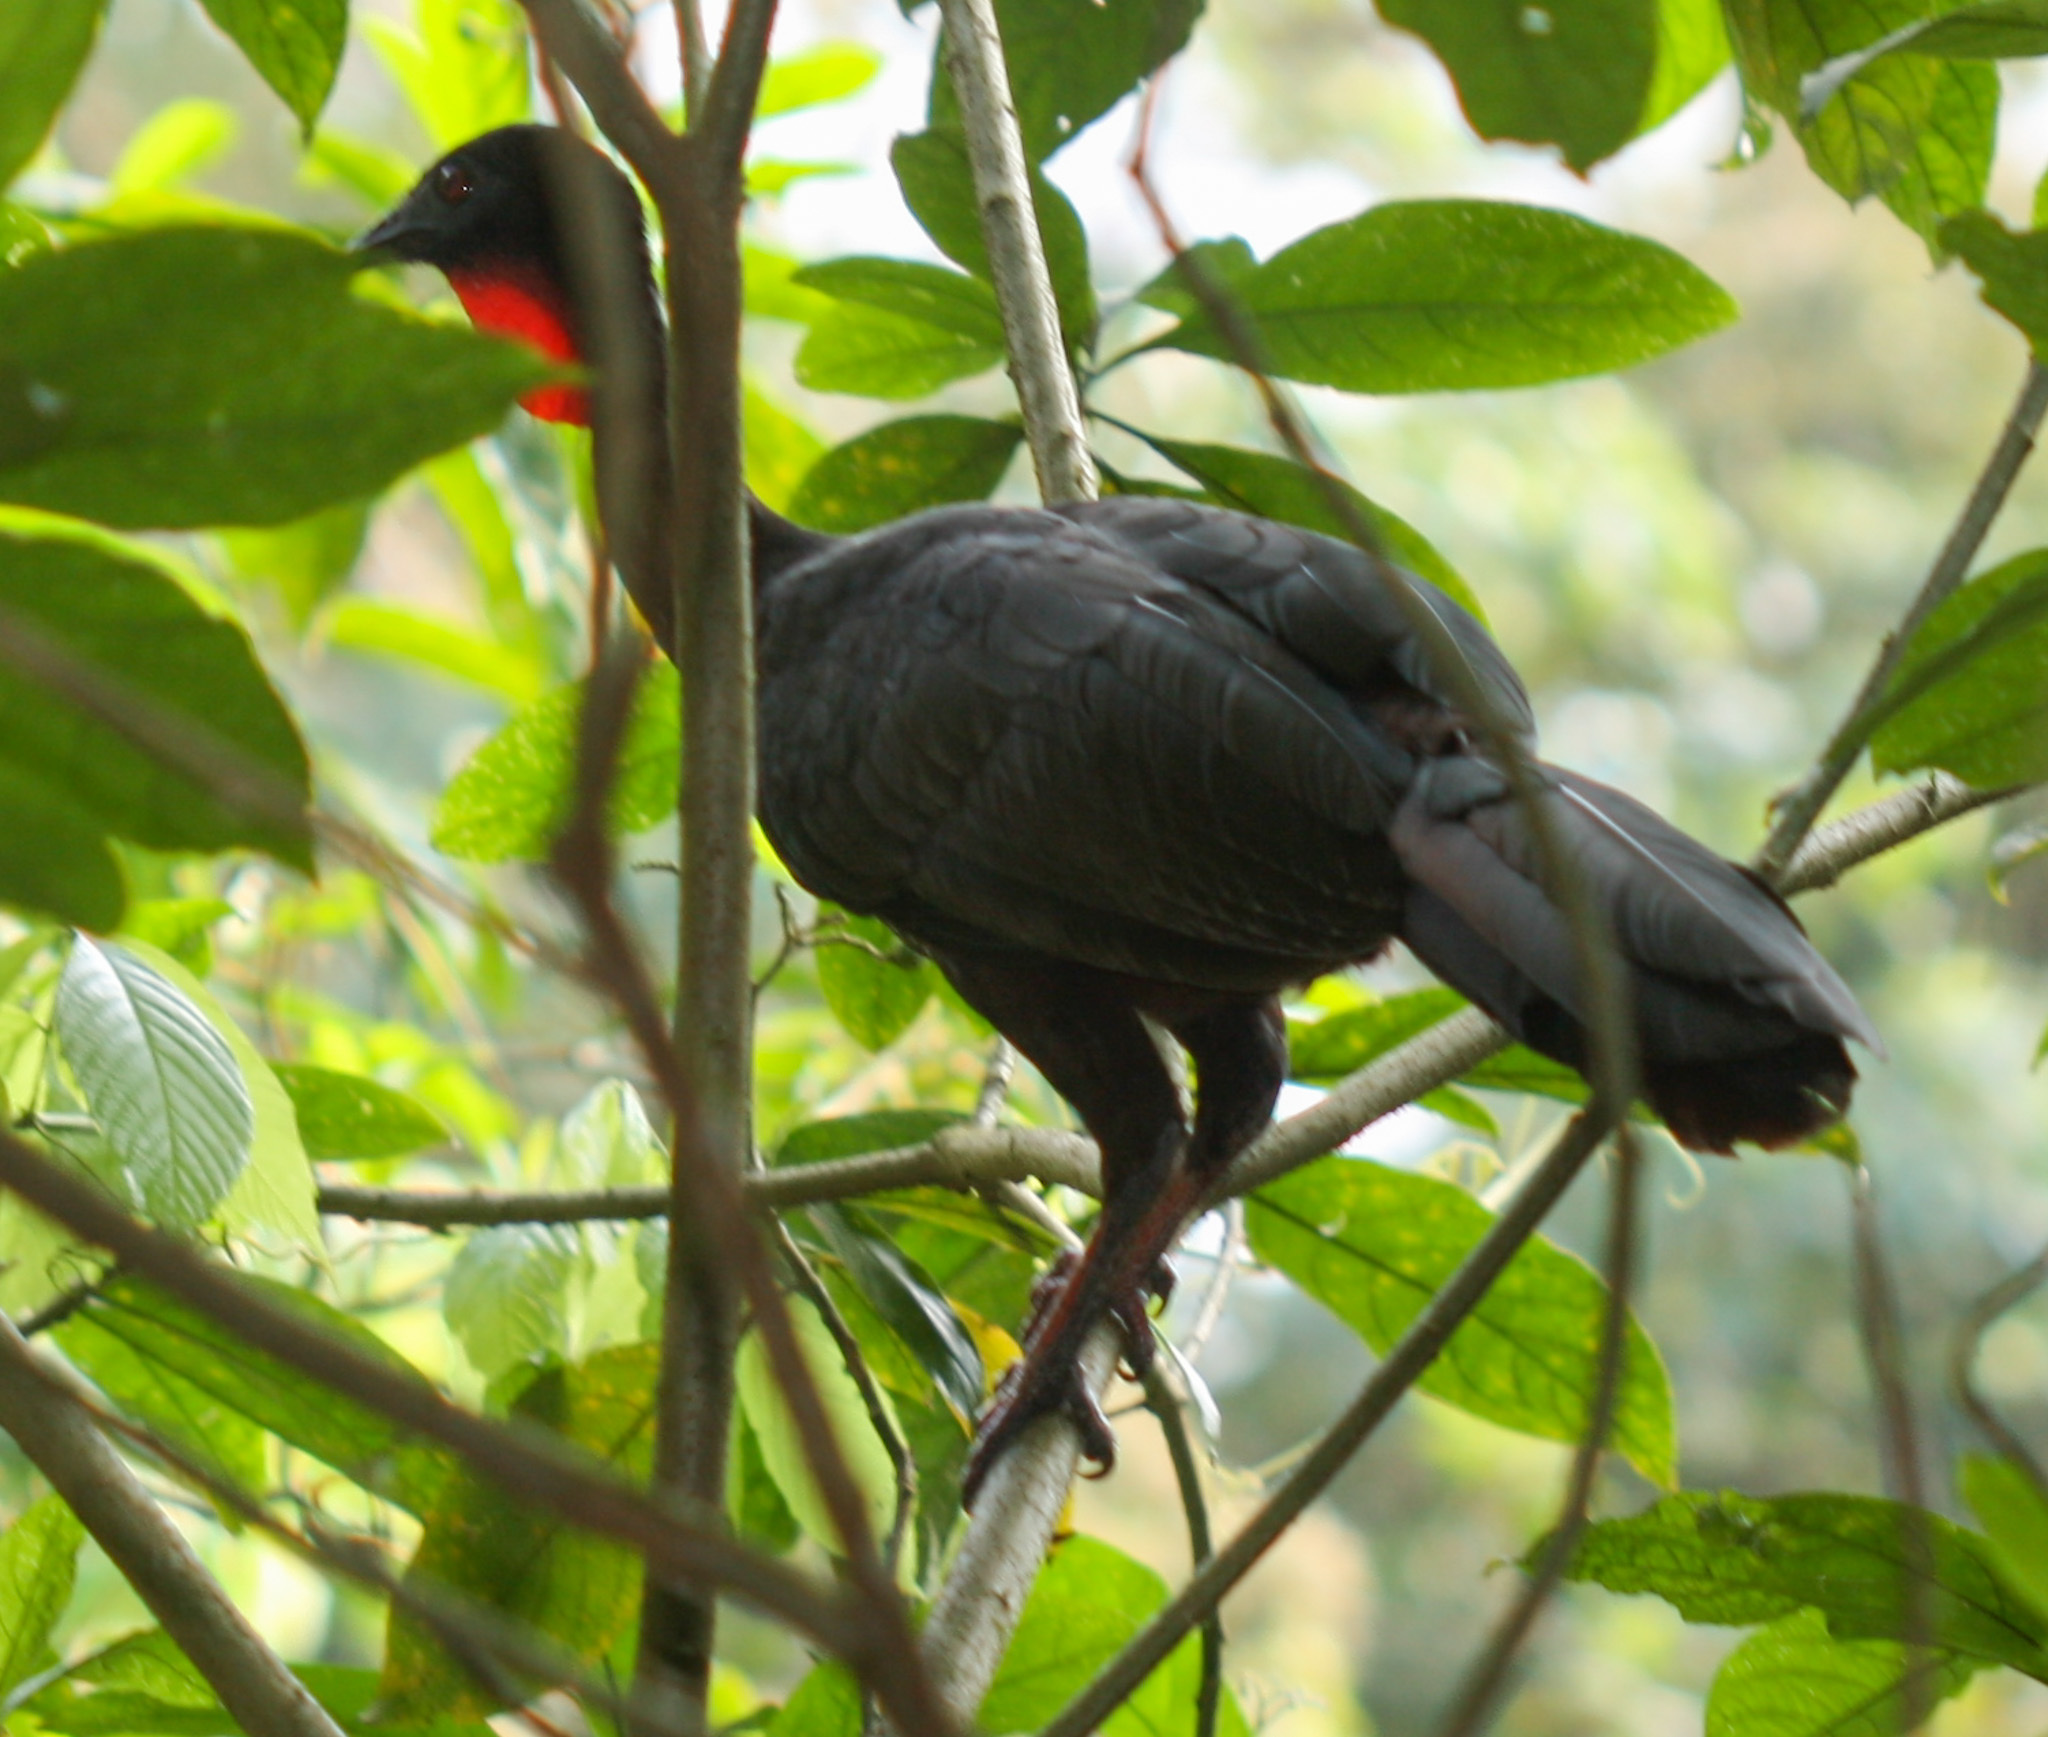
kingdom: Animalia
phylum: Chordata
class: Aves
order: Galliformes
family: Cracidae
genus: Penelope
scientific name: Penelope purpurascens
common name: Crested guan
